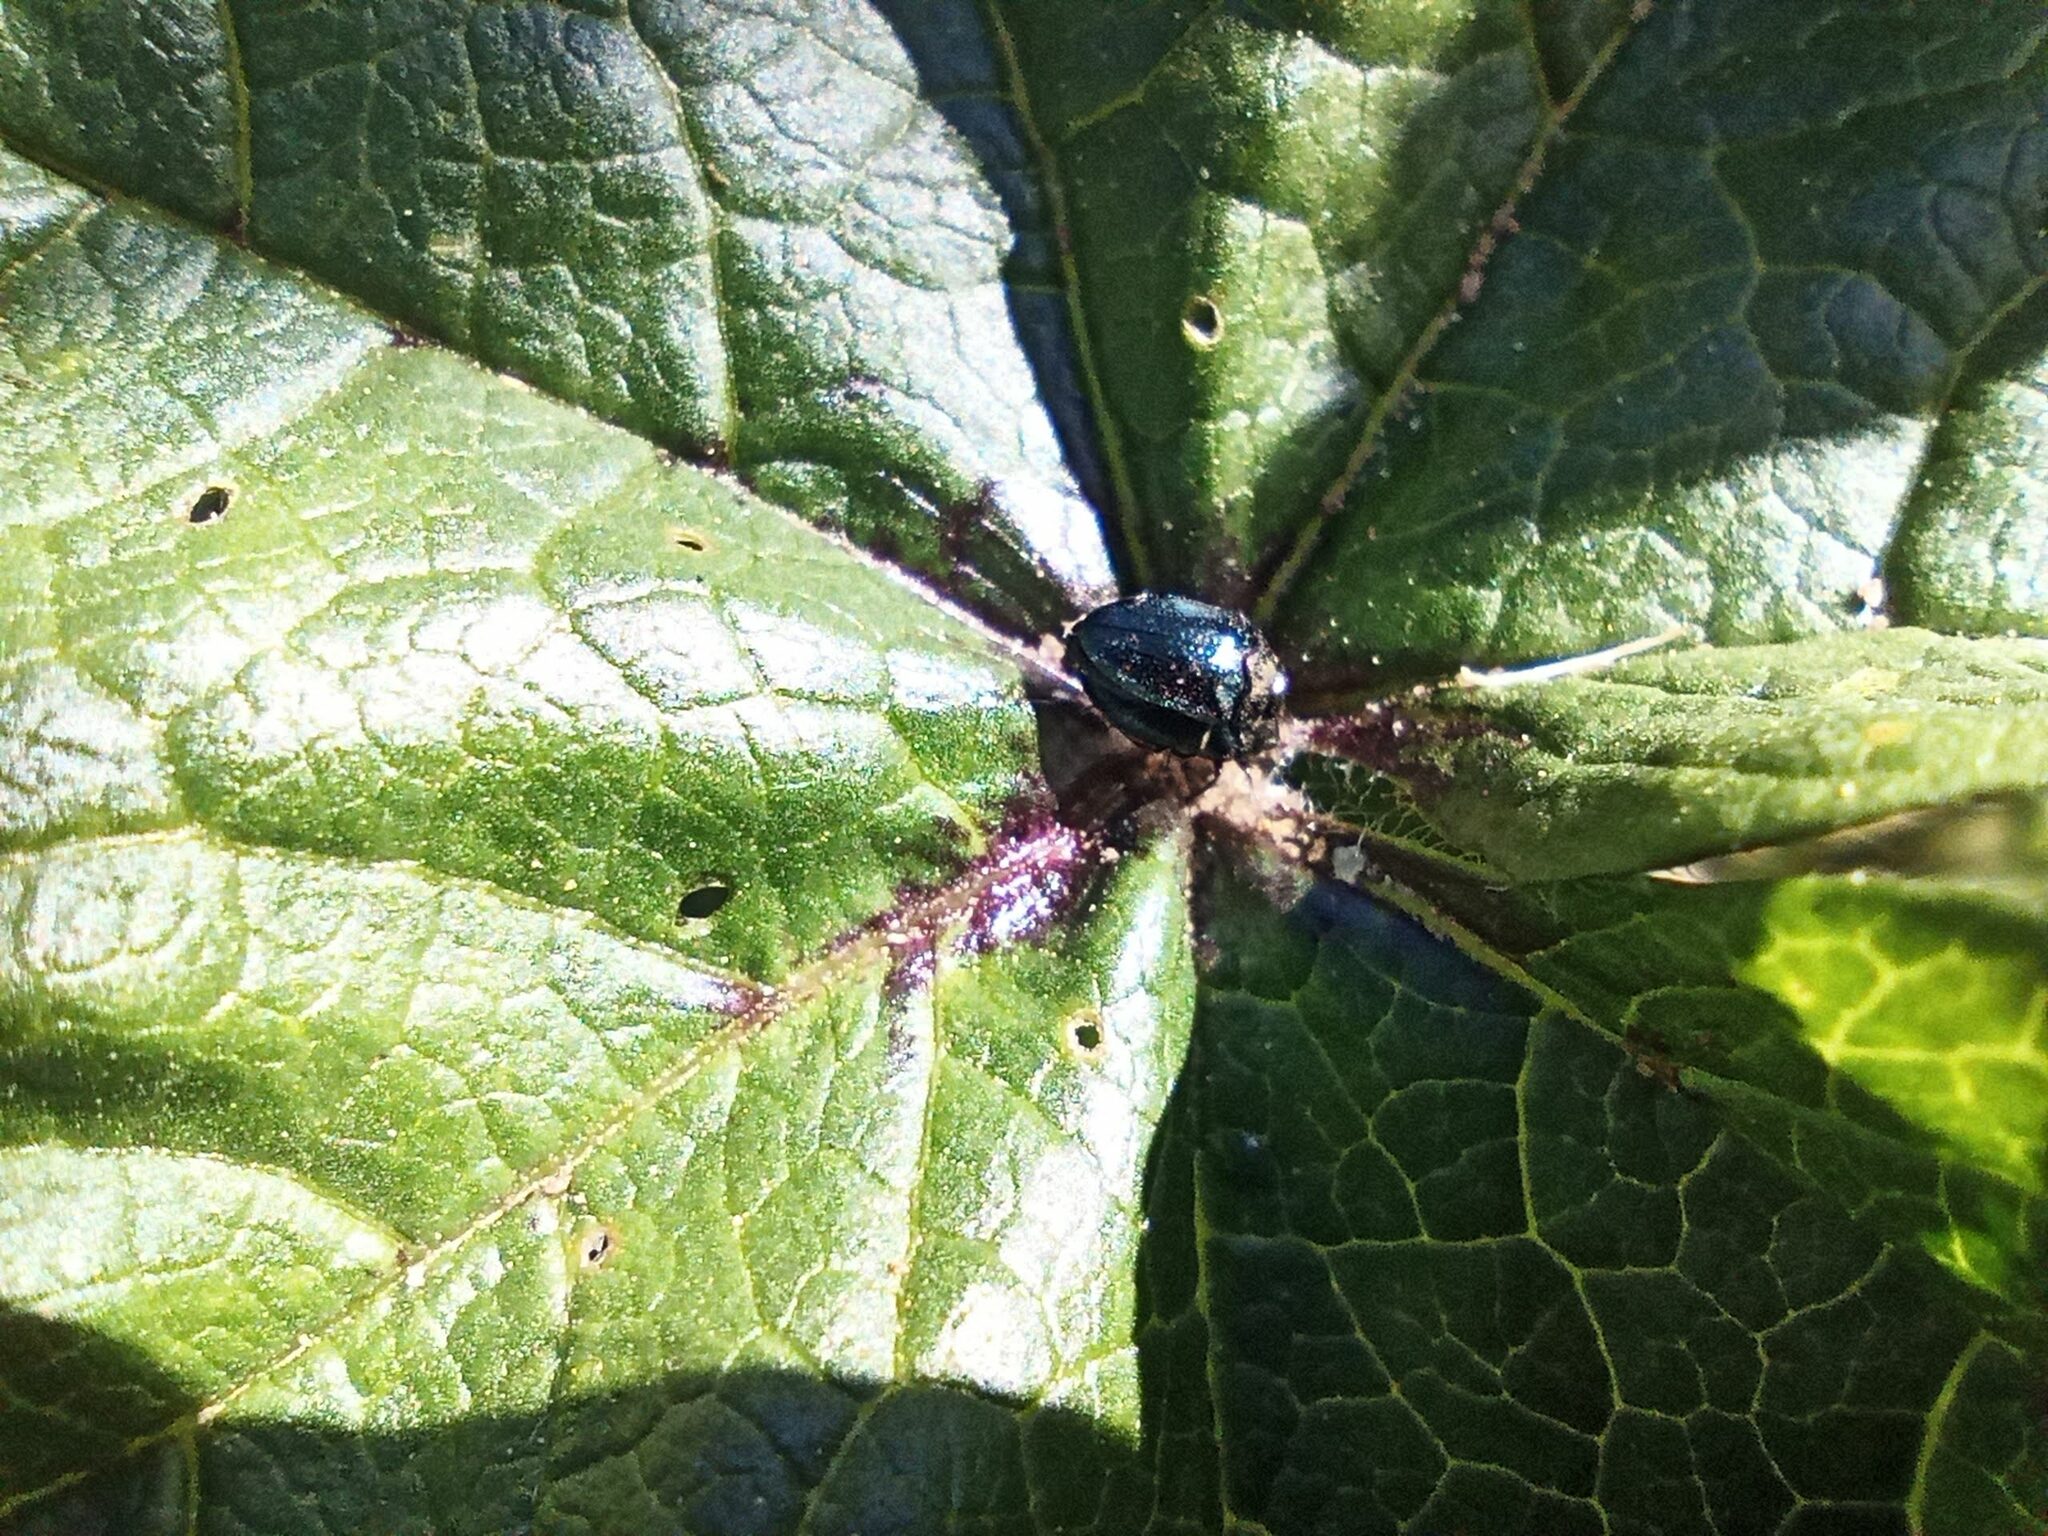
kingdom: Animalia
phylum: Arthropoda
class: Insecta
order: Coleoptera
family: Buprestidae
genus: Trachys
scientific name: Trachys troglodytiformis
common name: Metallic wood-boring beetle
